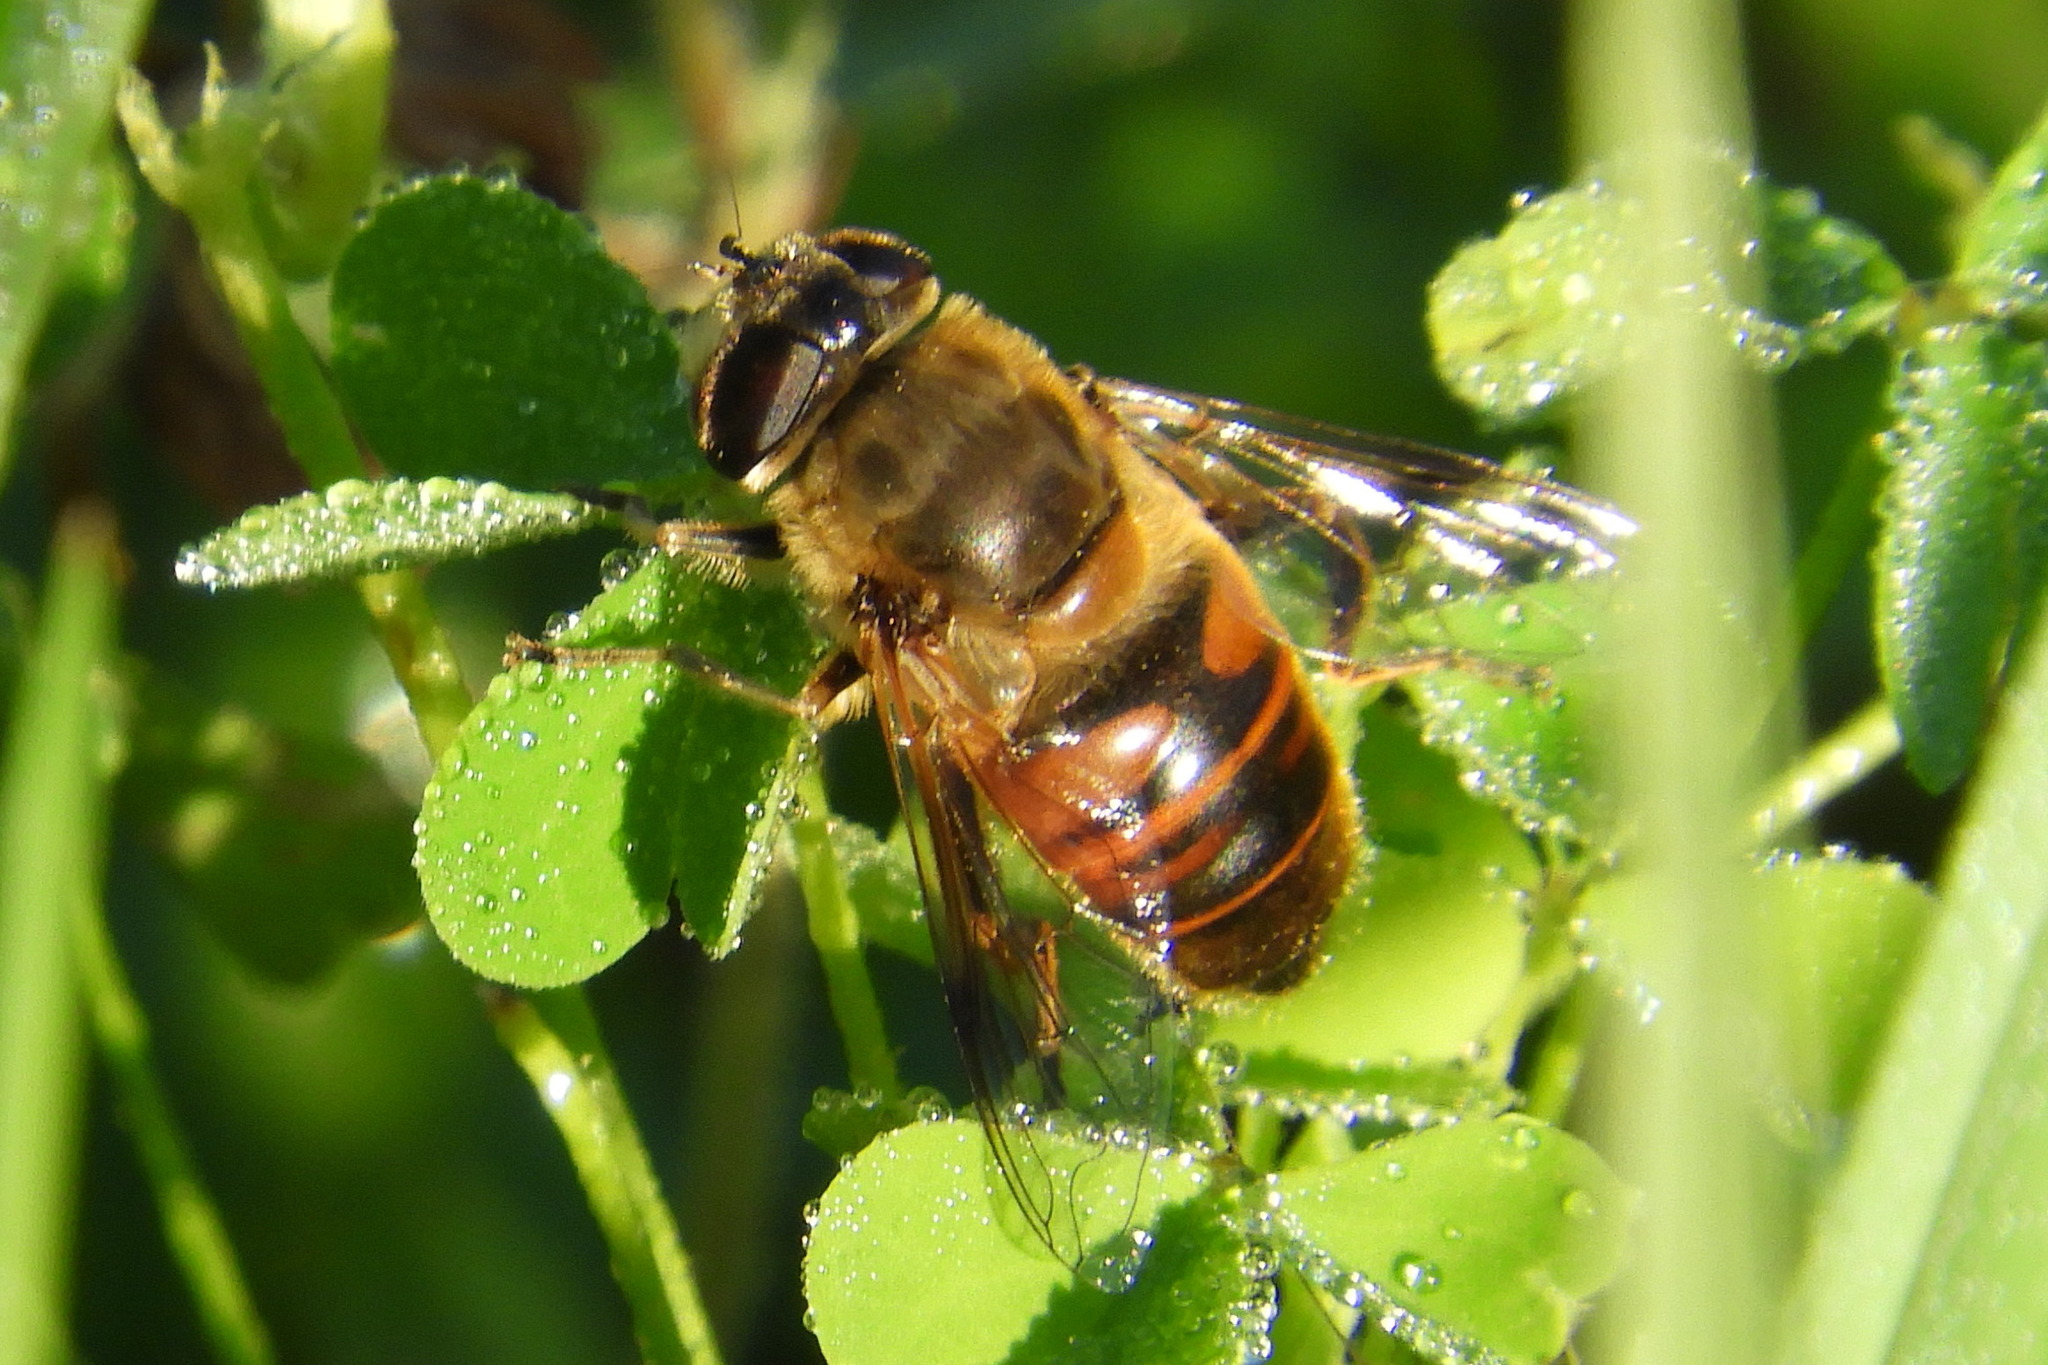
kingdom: Animalia
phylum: Arthropoda
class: Insecta
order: Diptera
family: Syrphidae
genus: Eristalis
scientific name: Eristalis tenax
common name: Drone fly
